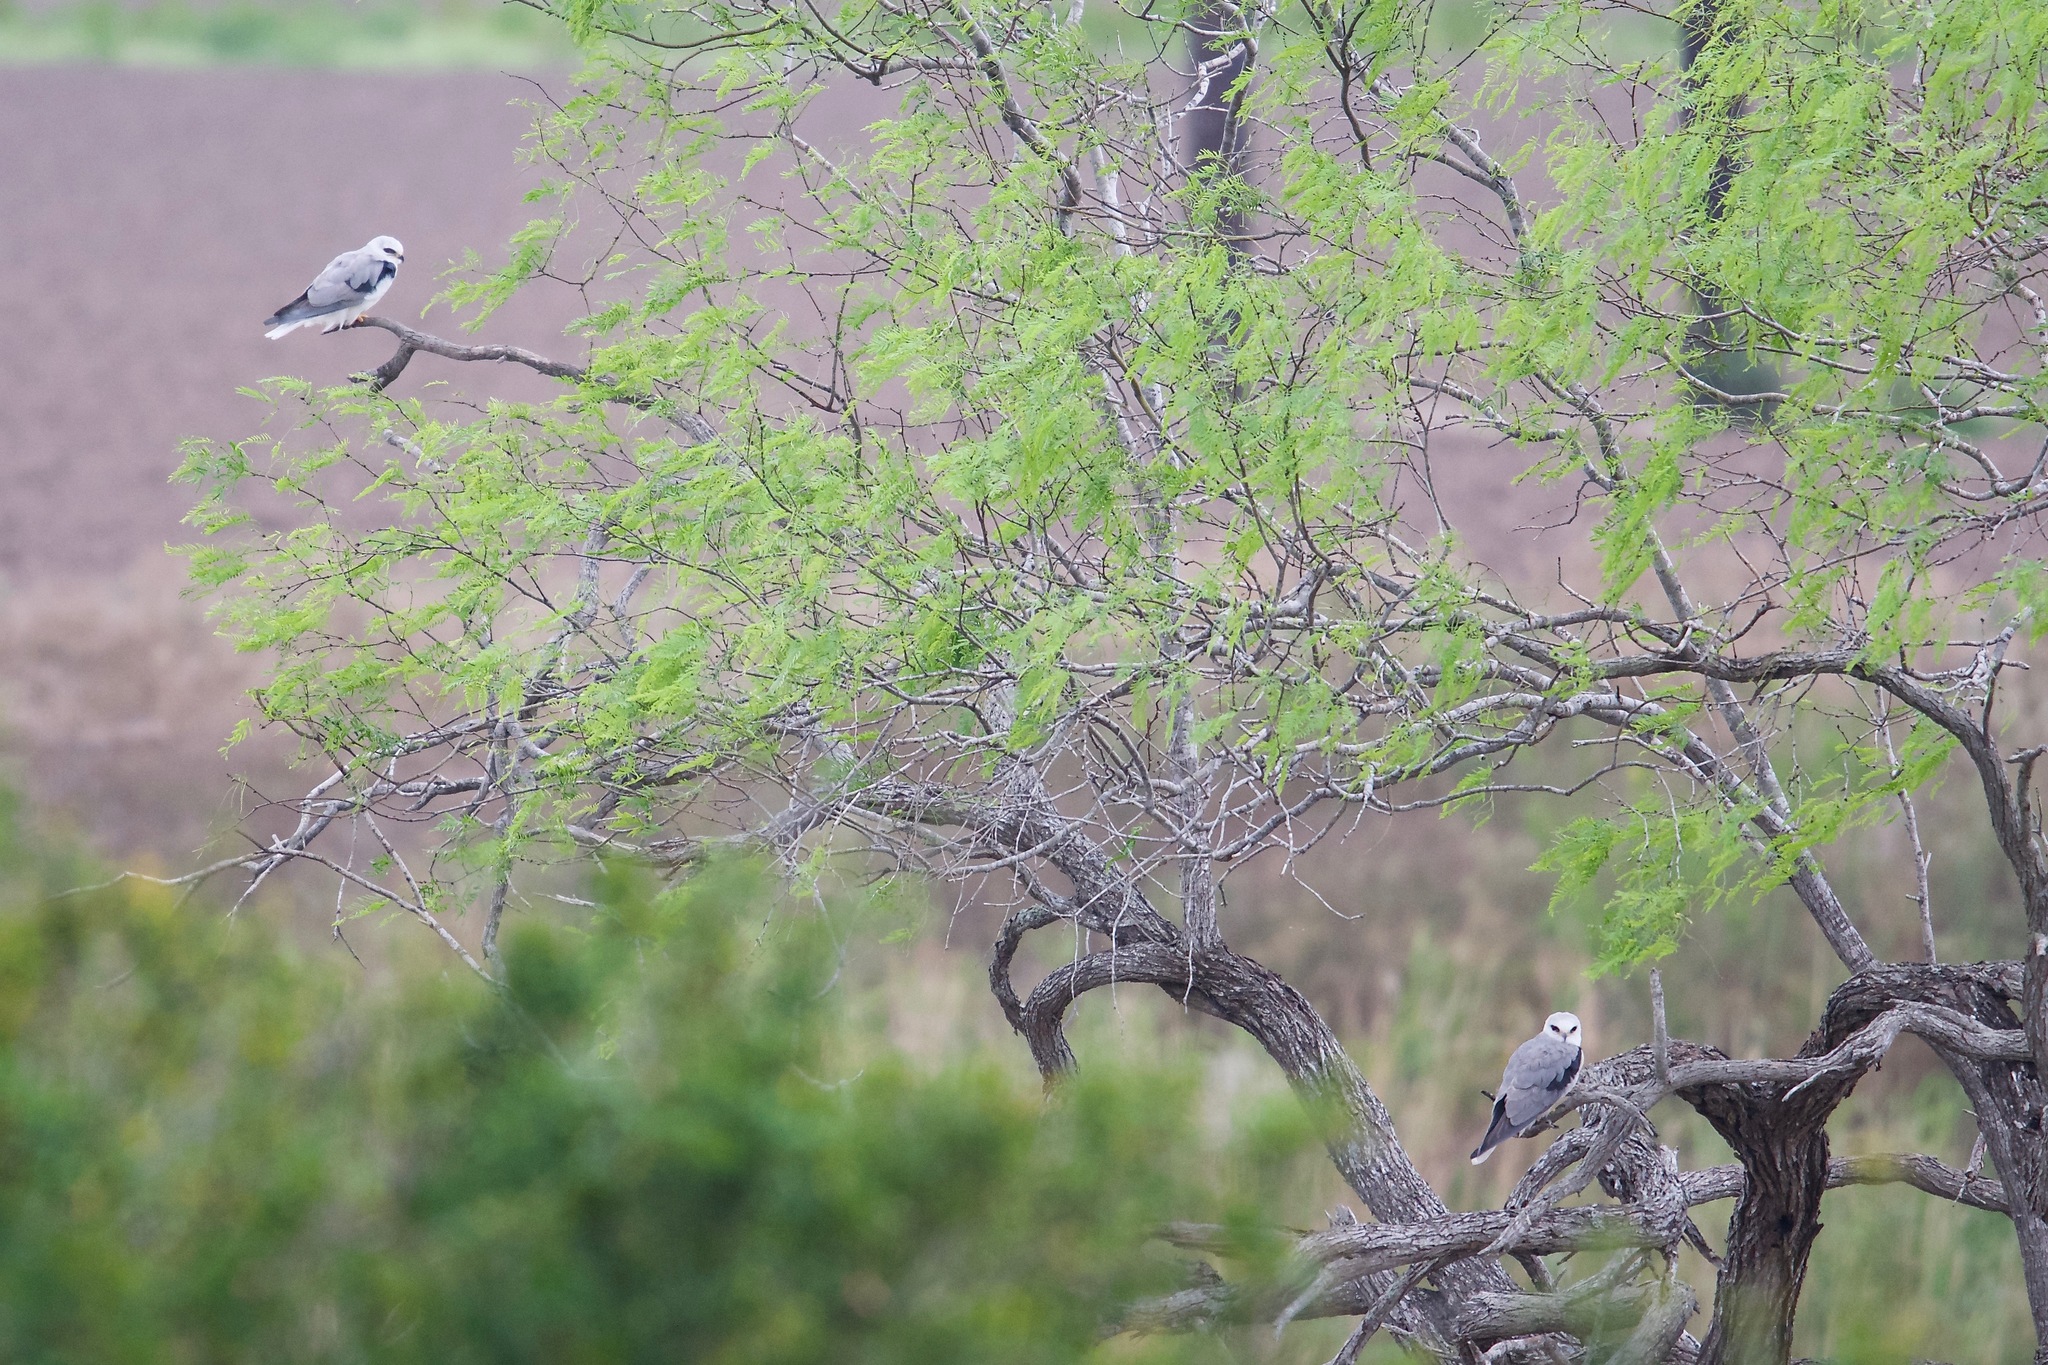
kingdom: Animalia
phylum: Chordata
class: Aves
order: Accipitriformes
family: Accipitridae
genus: Elanus
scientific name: Elanus leucurus
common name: White-tailed kite
